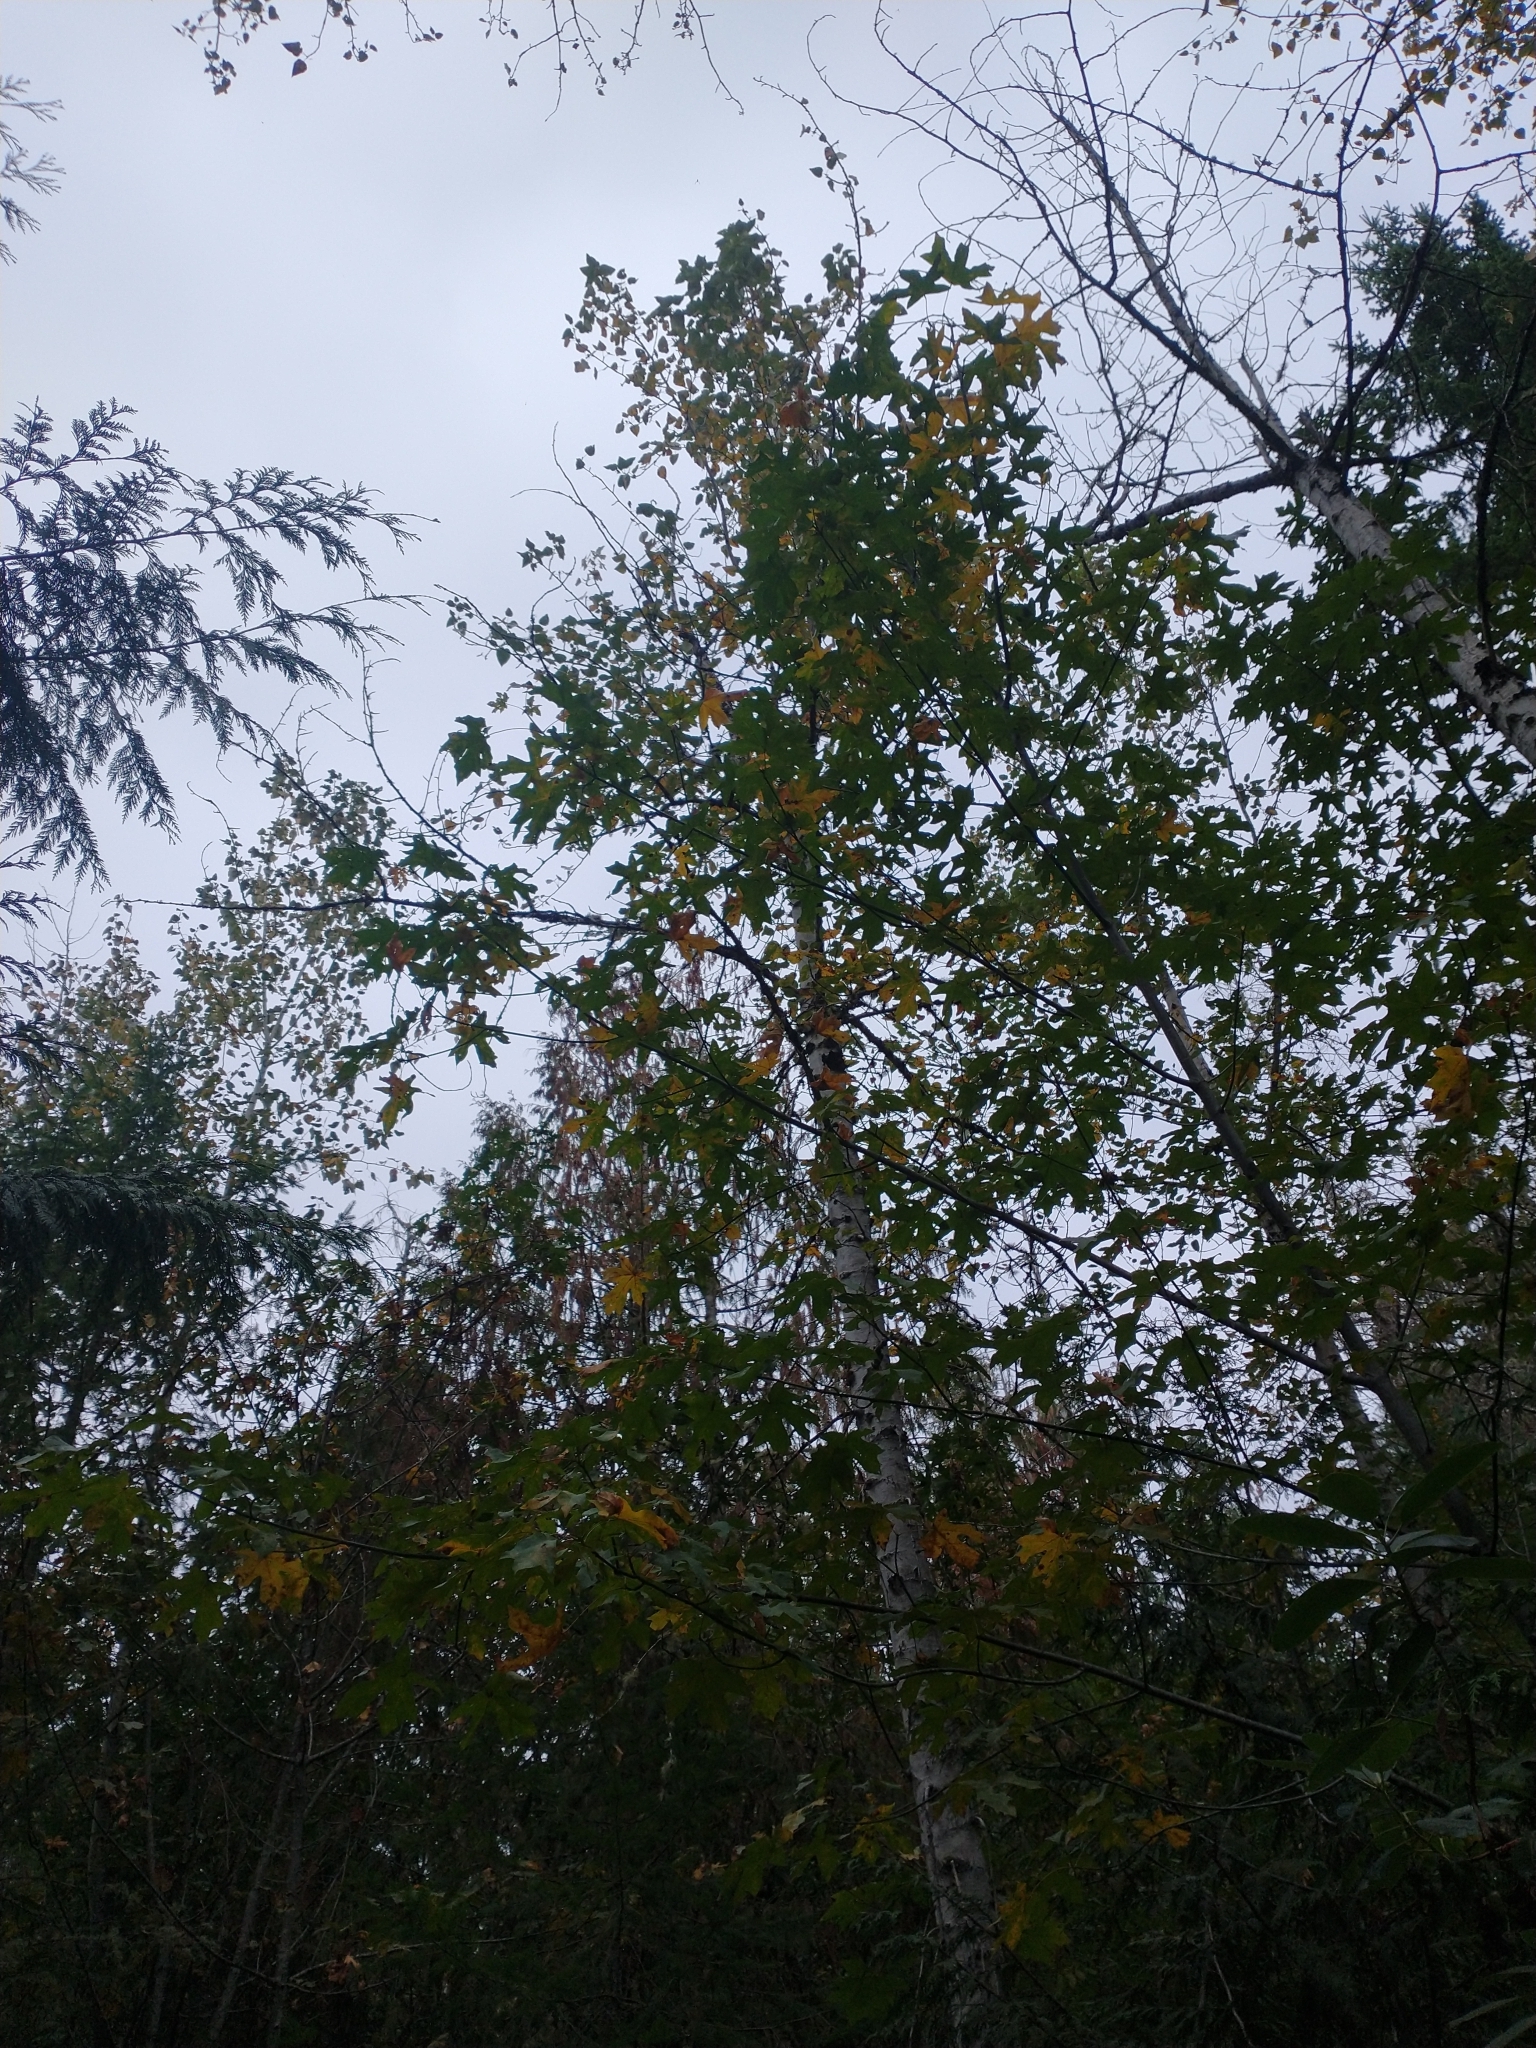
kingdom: Plantae
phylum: Tracheophyta
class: Magnoliopsida
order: Sapindales
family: Sapindaceae
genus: Acer
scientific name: Acer macrophyllum
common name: Oregon maple
